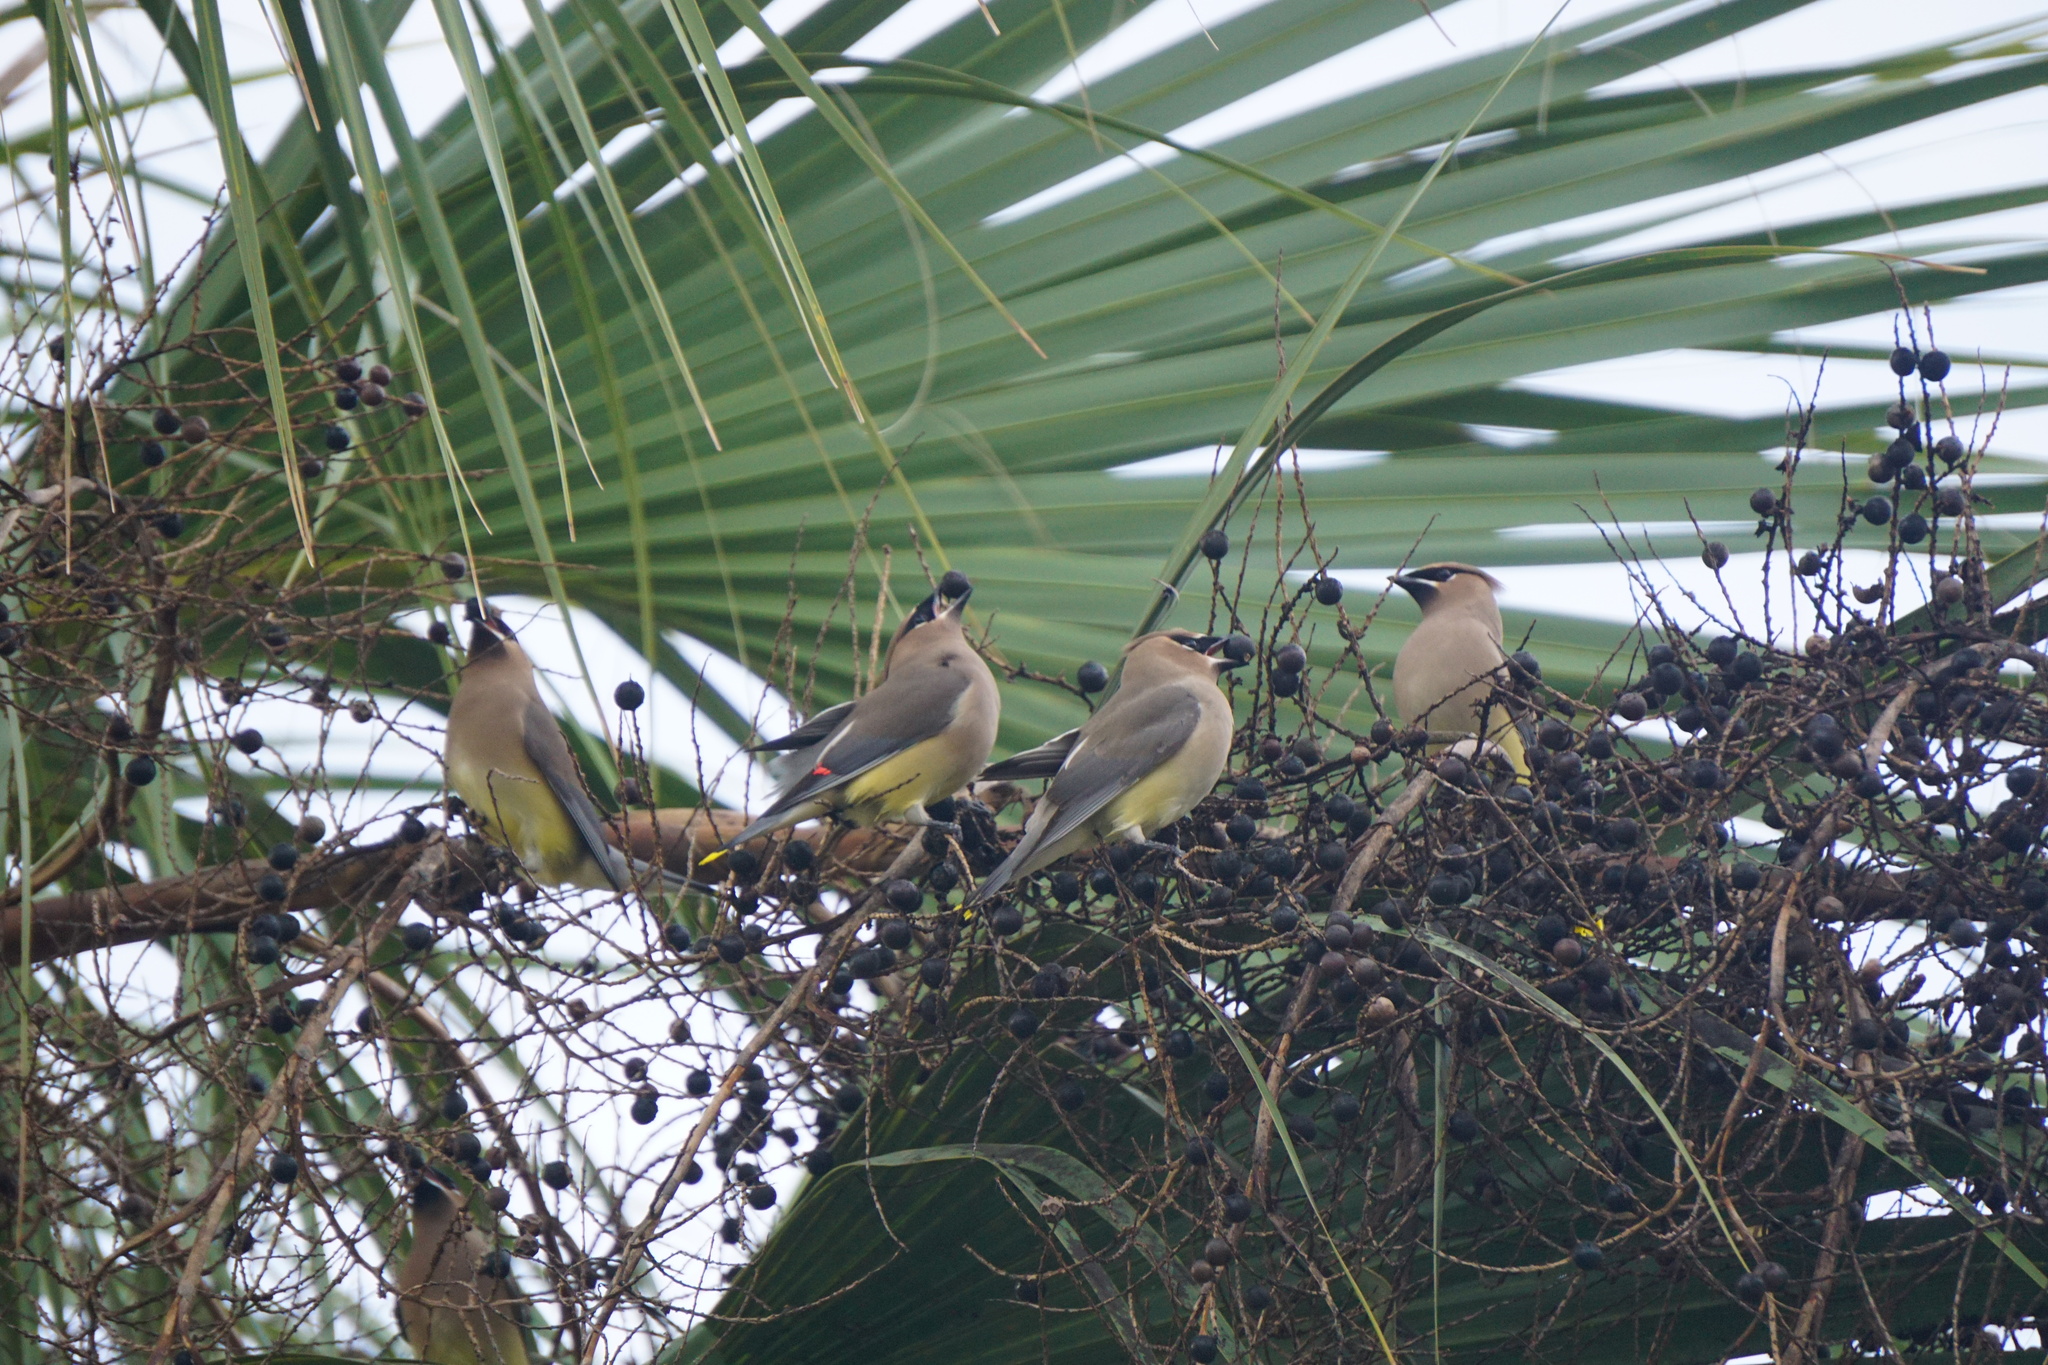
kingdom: Animalia
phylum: Chordata
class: Aves
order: Passeriformes
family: Bombycillidae
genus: Bombycilla
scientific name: Bombycilla cedrorum
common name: Cedar waxwing
